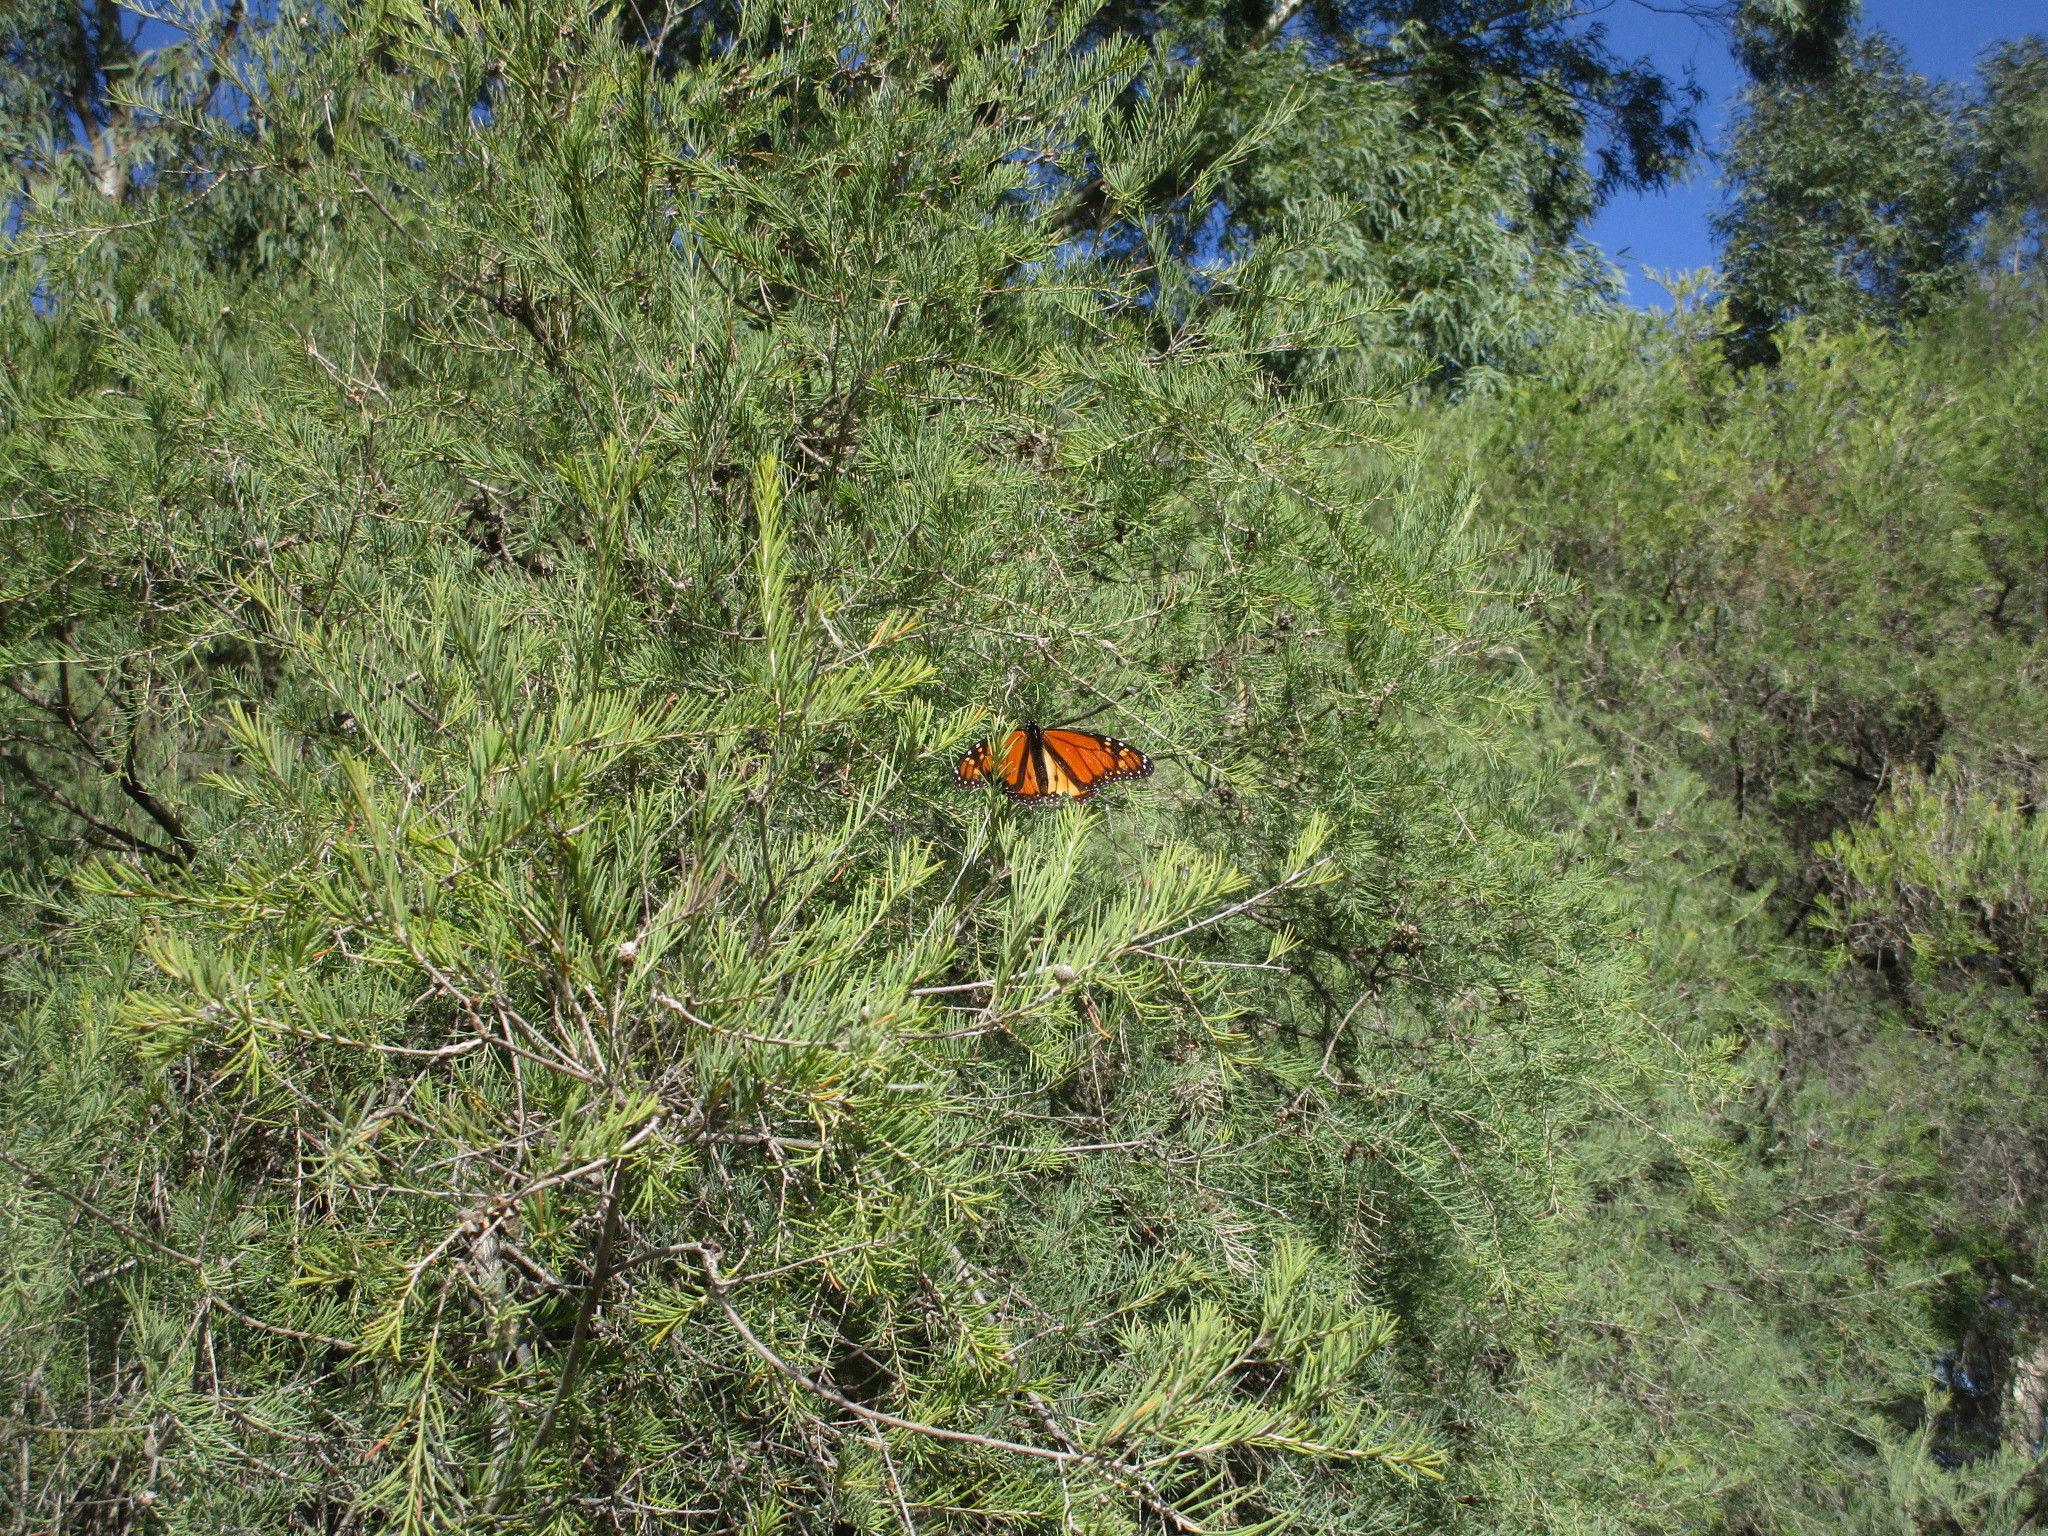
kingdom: Animalia
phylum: Arthropoda
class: Insecta
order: Lepidoptera
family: Nymphalidae
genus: Danaus
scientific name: Danaus plexippus
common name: Monarch
